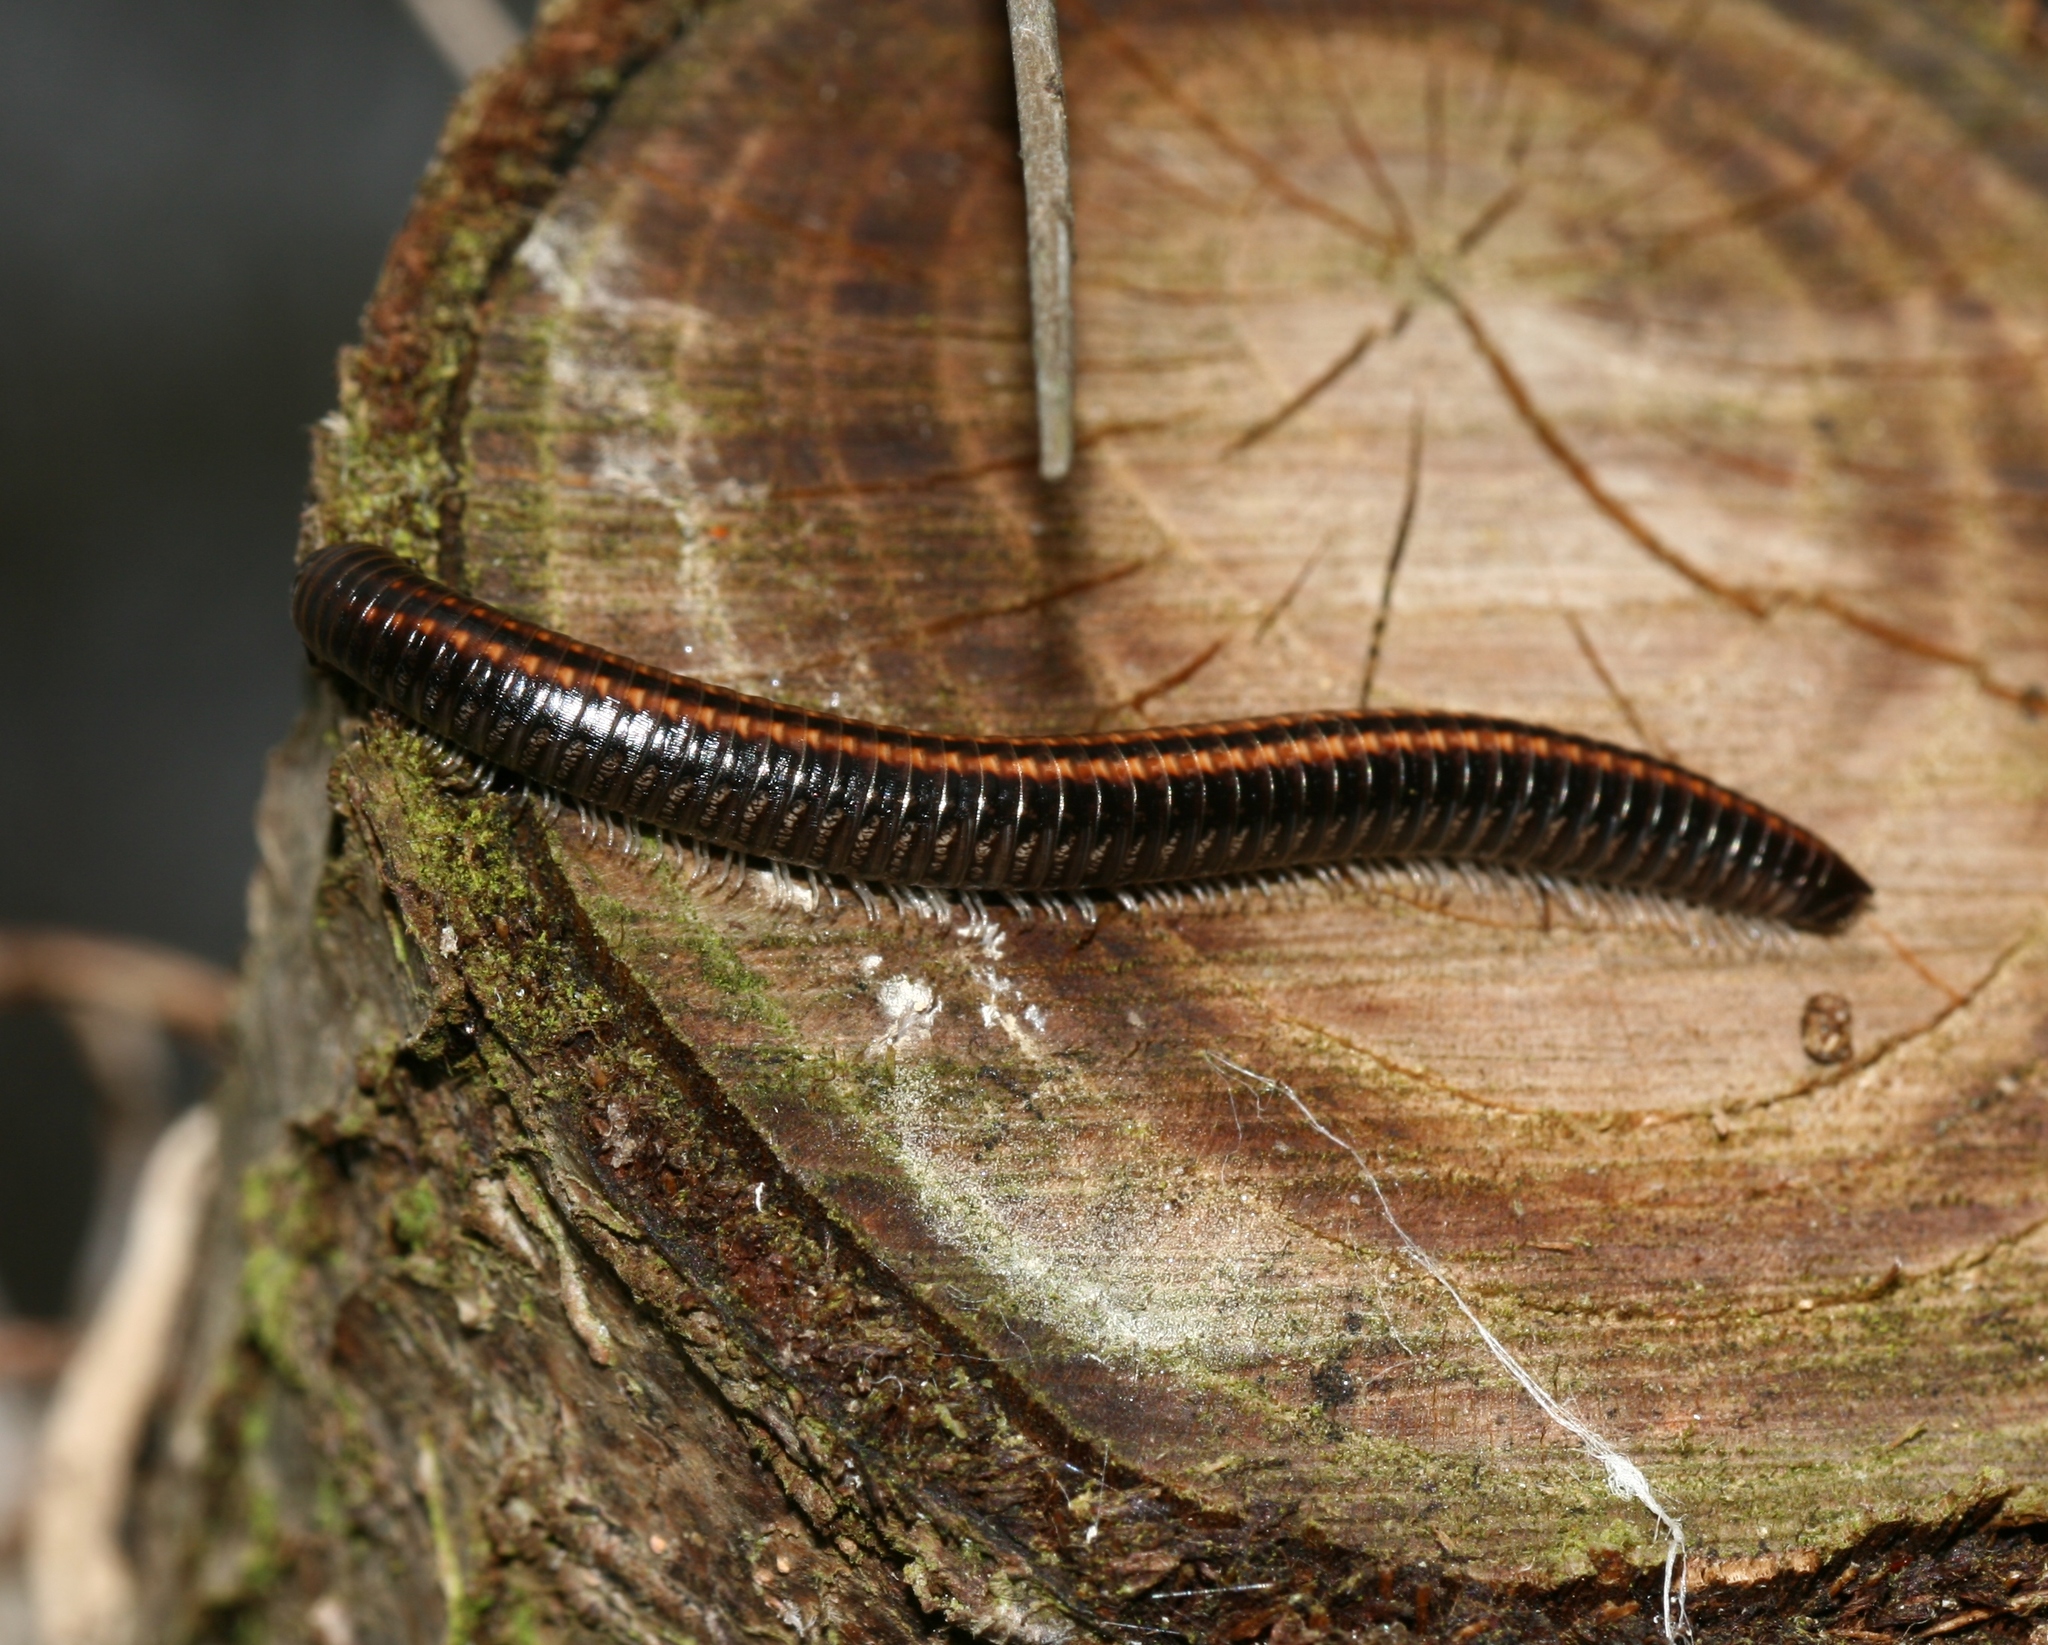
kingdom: Animalia
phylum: Arthropoda
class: Diplopoda
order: Julida
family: Julidae
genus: Ommatoiulus
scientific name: Ommatoiulus sabulosus
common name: Striped millipede
